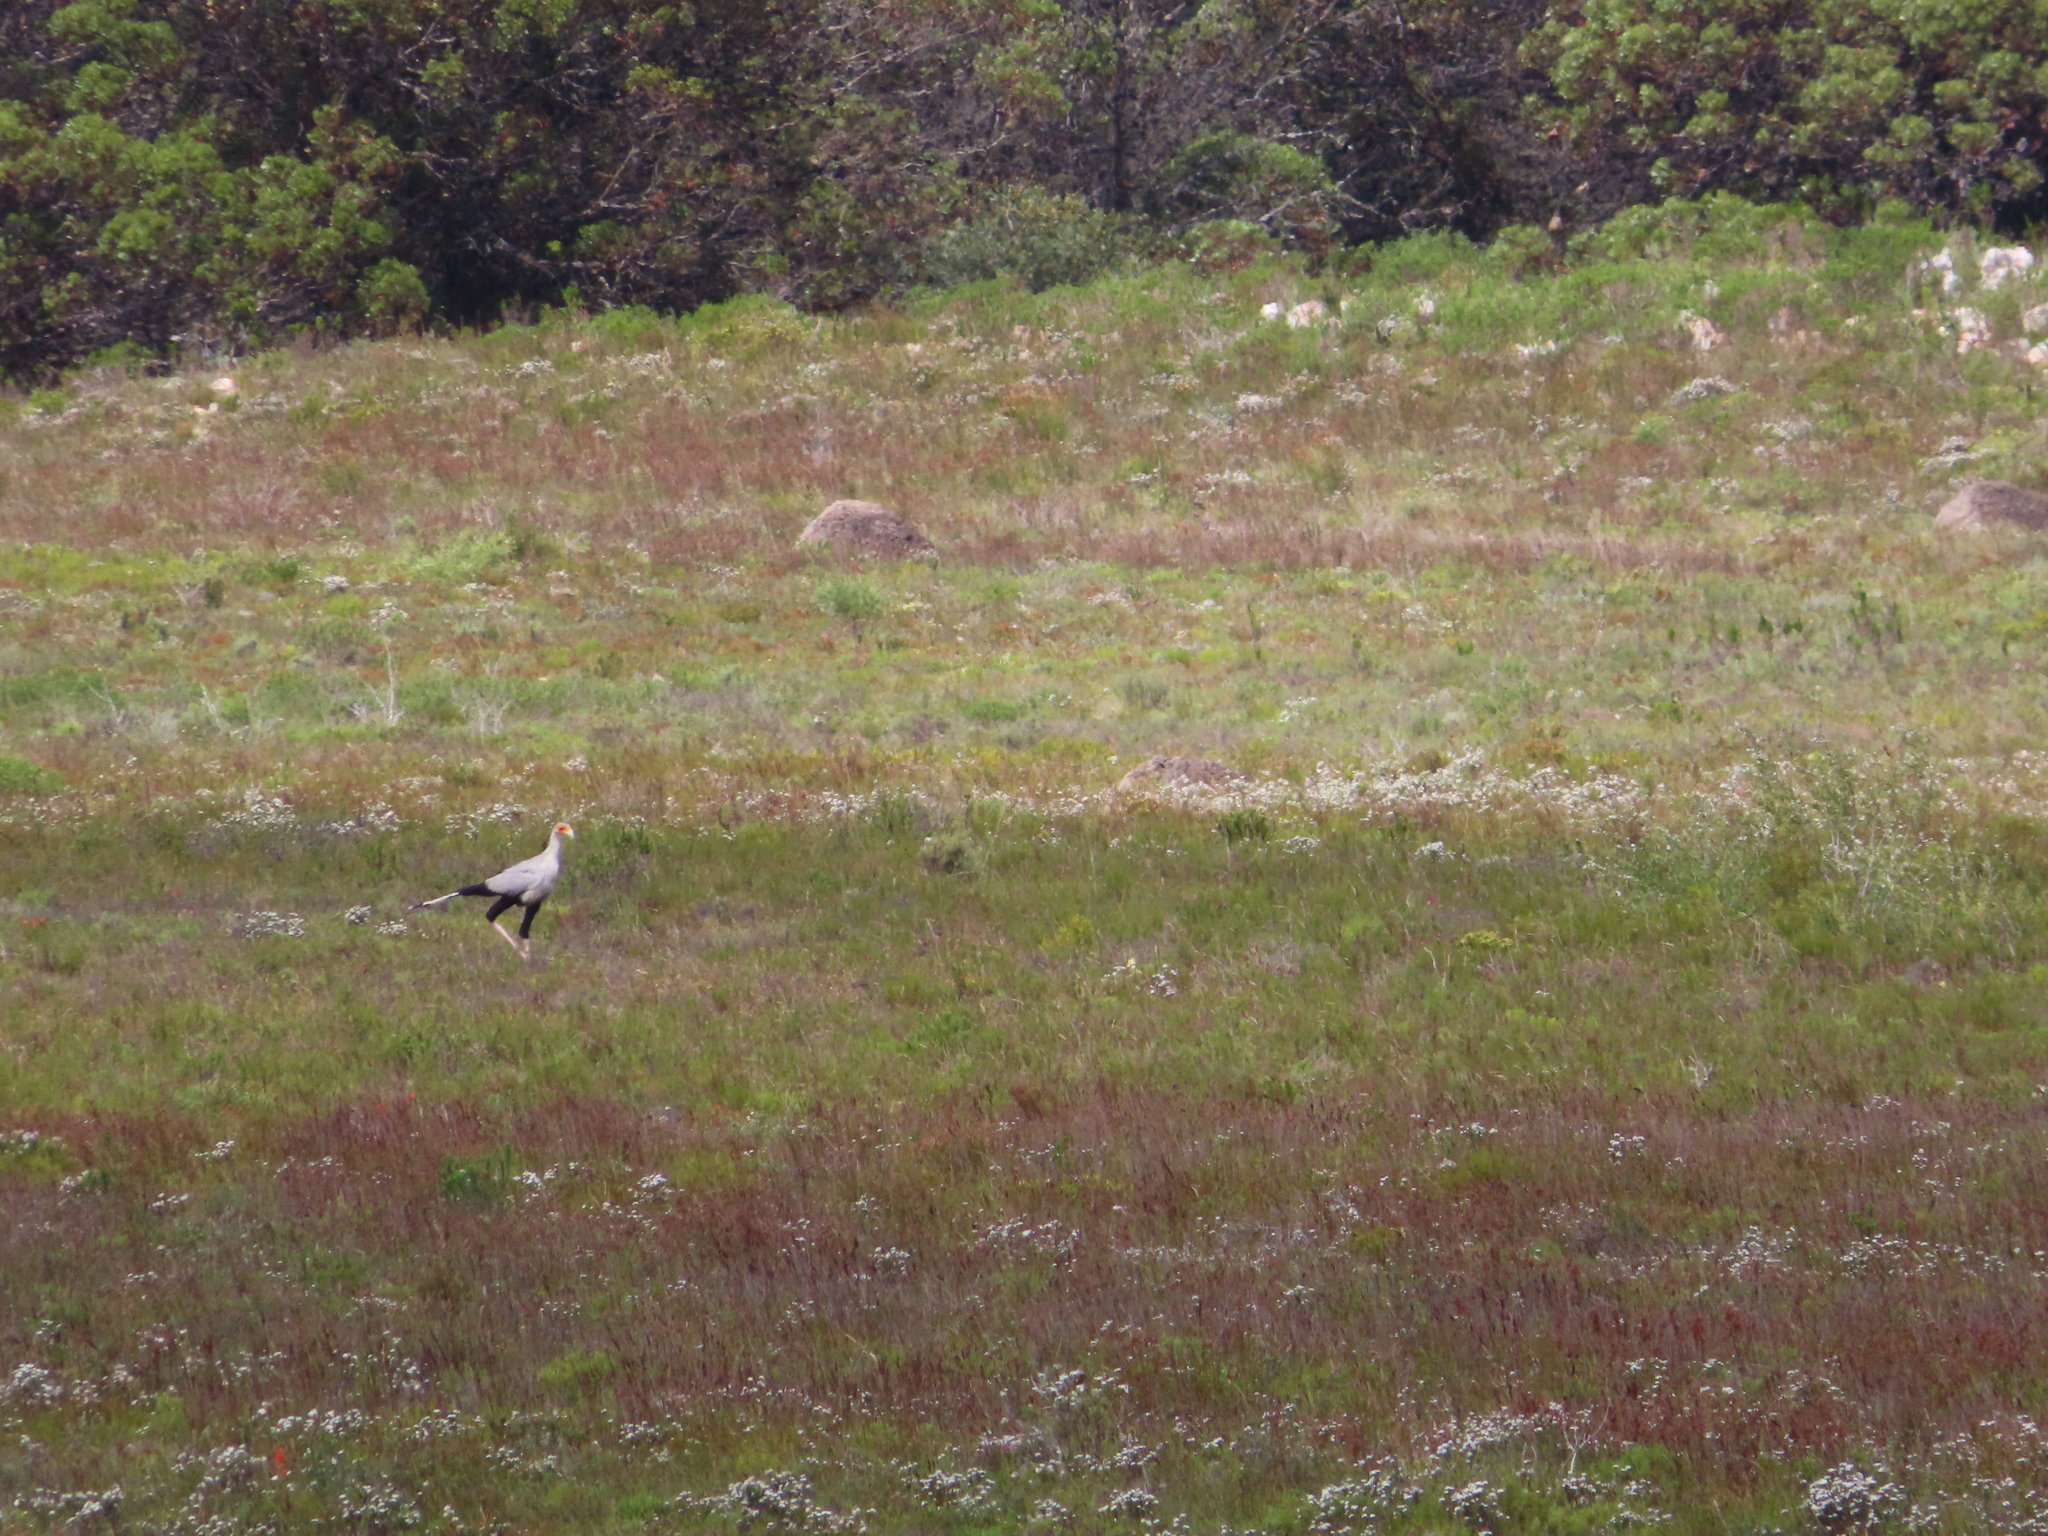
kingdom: Animalia
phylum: Chordata
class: Aves
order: Accipitriformes
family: Sagittariidae
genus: Sagittarius
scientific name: Sagittarius serpentarius
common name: Secretarybird
